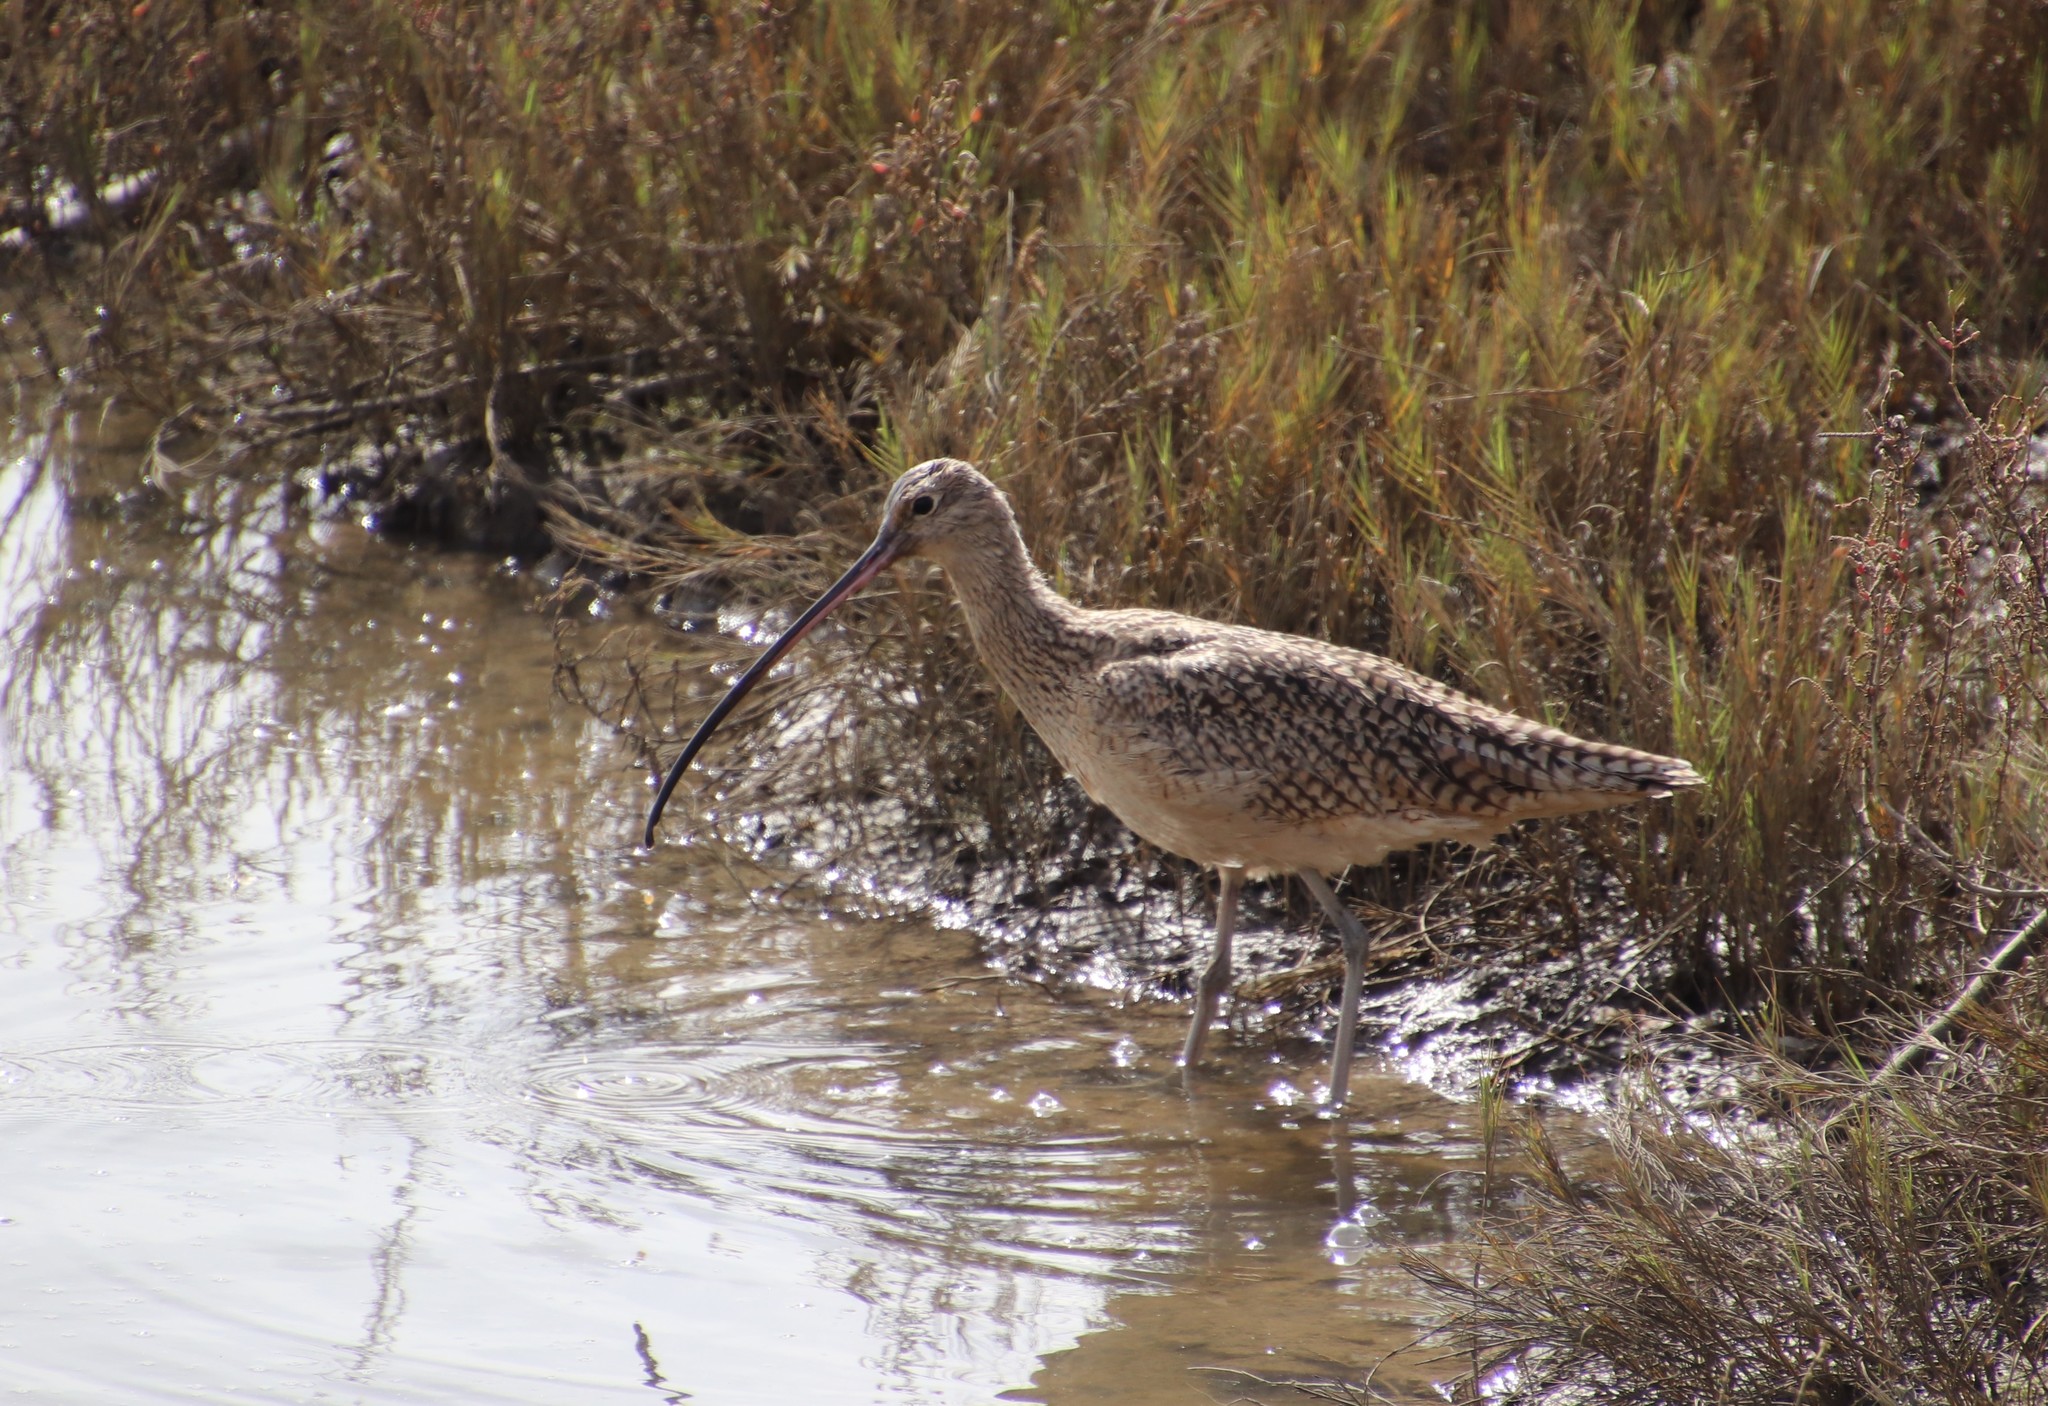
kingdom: Animalia
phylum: Chordata
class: Aves
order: Charadriiformes
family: Scolopacidae
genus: Numenius
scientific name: Numenius americanus
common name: Long-billed curlew
